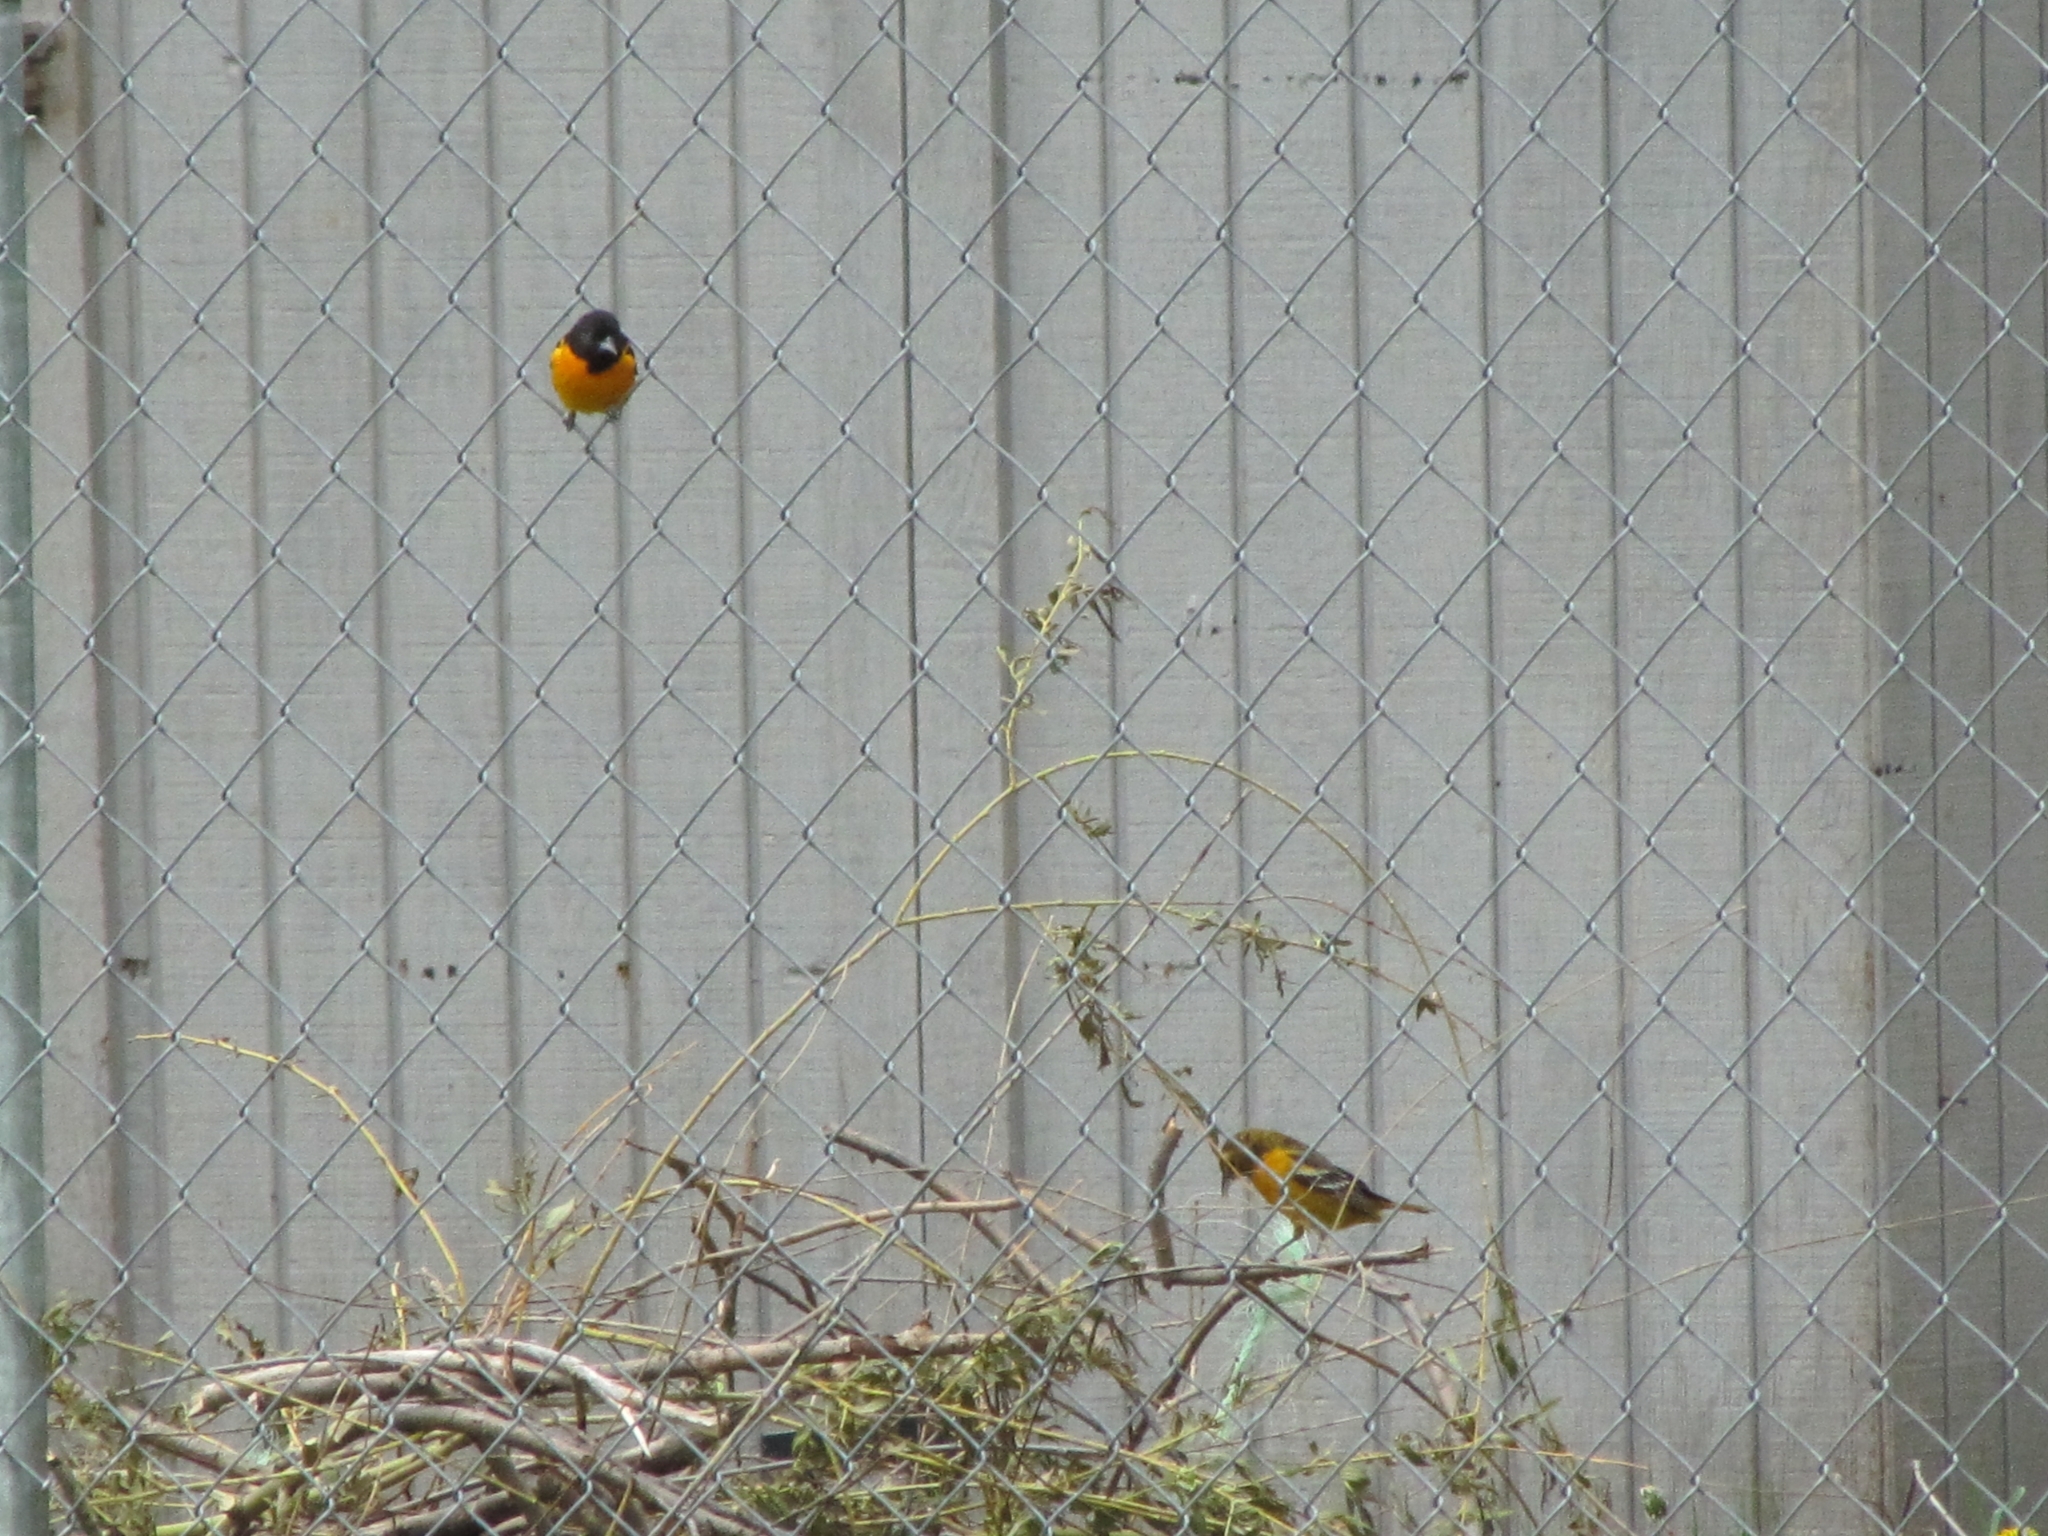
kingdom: Animalia
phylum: Chordata
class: Aves
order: Passeriformes
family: Icteridae
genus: Icterus
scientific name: Icterus galbula
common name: Baltimore oriole
